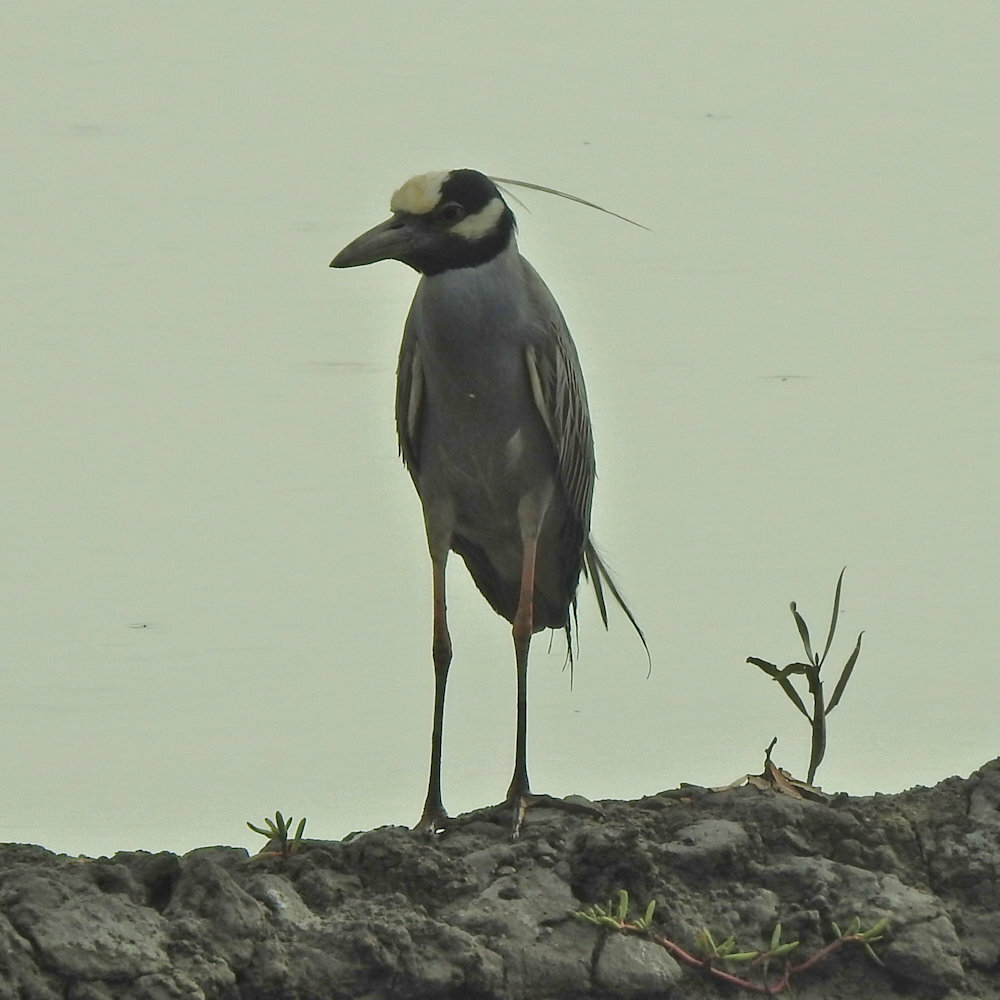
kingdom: Animalia
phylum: Chordata
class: Aves
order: Pelecaniformes
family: Ardeidae
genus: Nyctanassa
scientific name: Nyctanassa violacea
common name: Yellow-crowned night heron
